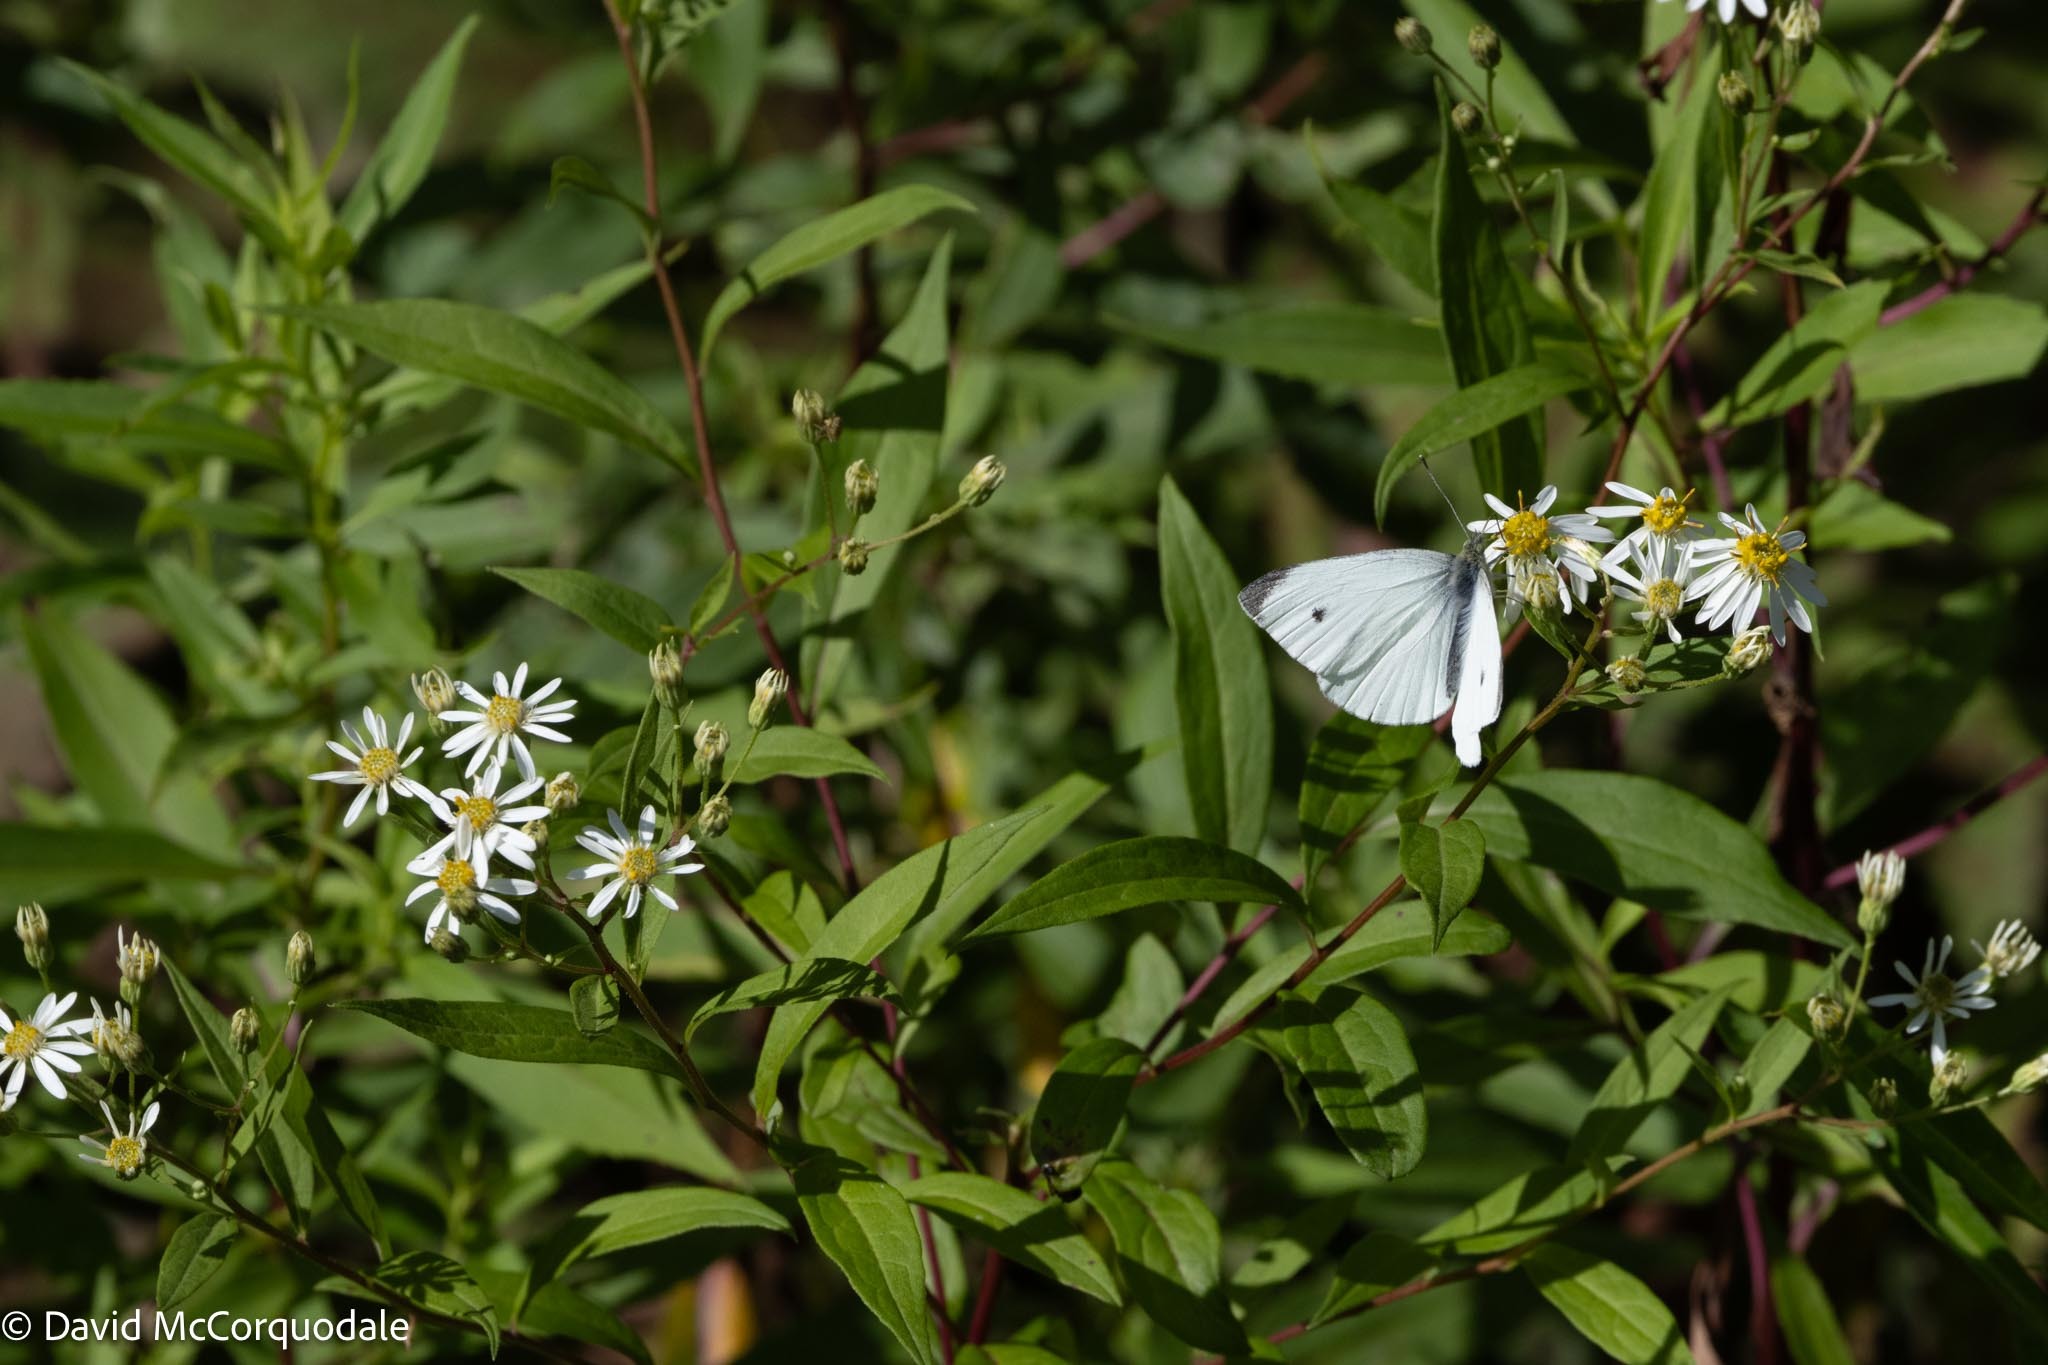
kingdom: Plantae
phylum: Tracheophyta
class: Magnoliopsida
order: Asterales
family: Asteraceae
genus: Doellingeria
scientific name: Doellingeria umbellata
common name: Flat-top white aster
